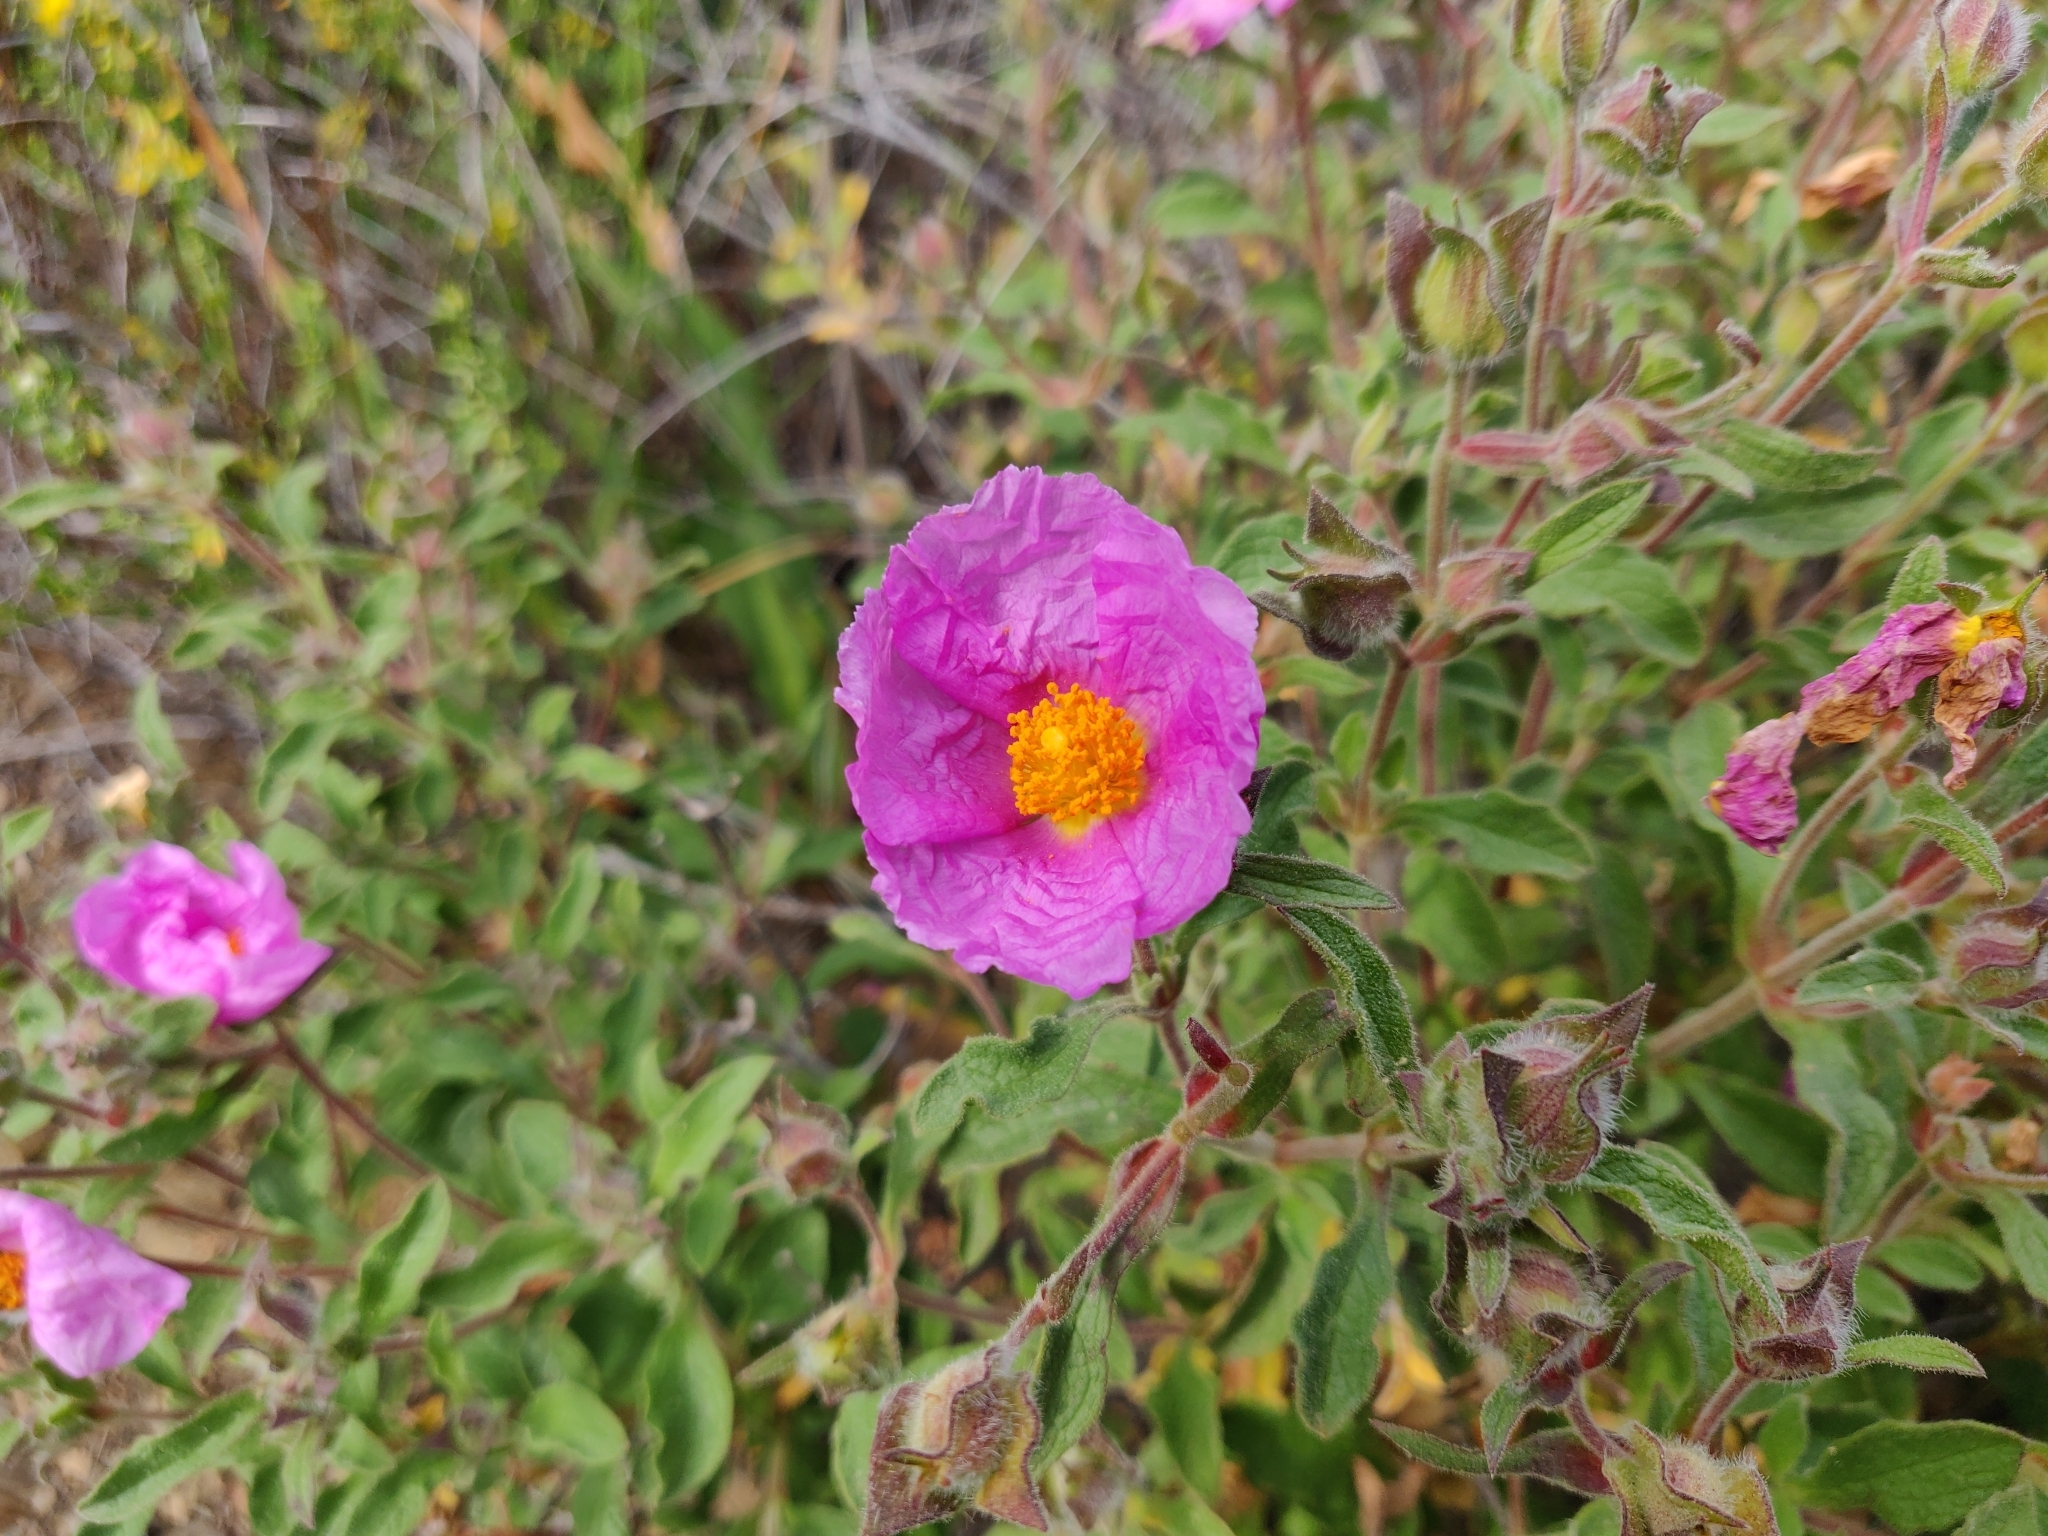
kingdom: Plantae
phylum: Tracheophyta
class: Magnoliopsida
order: Malvales
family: Cistaceae
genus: Cistus
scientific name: Cistus creticus
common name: Cretan rockrose
